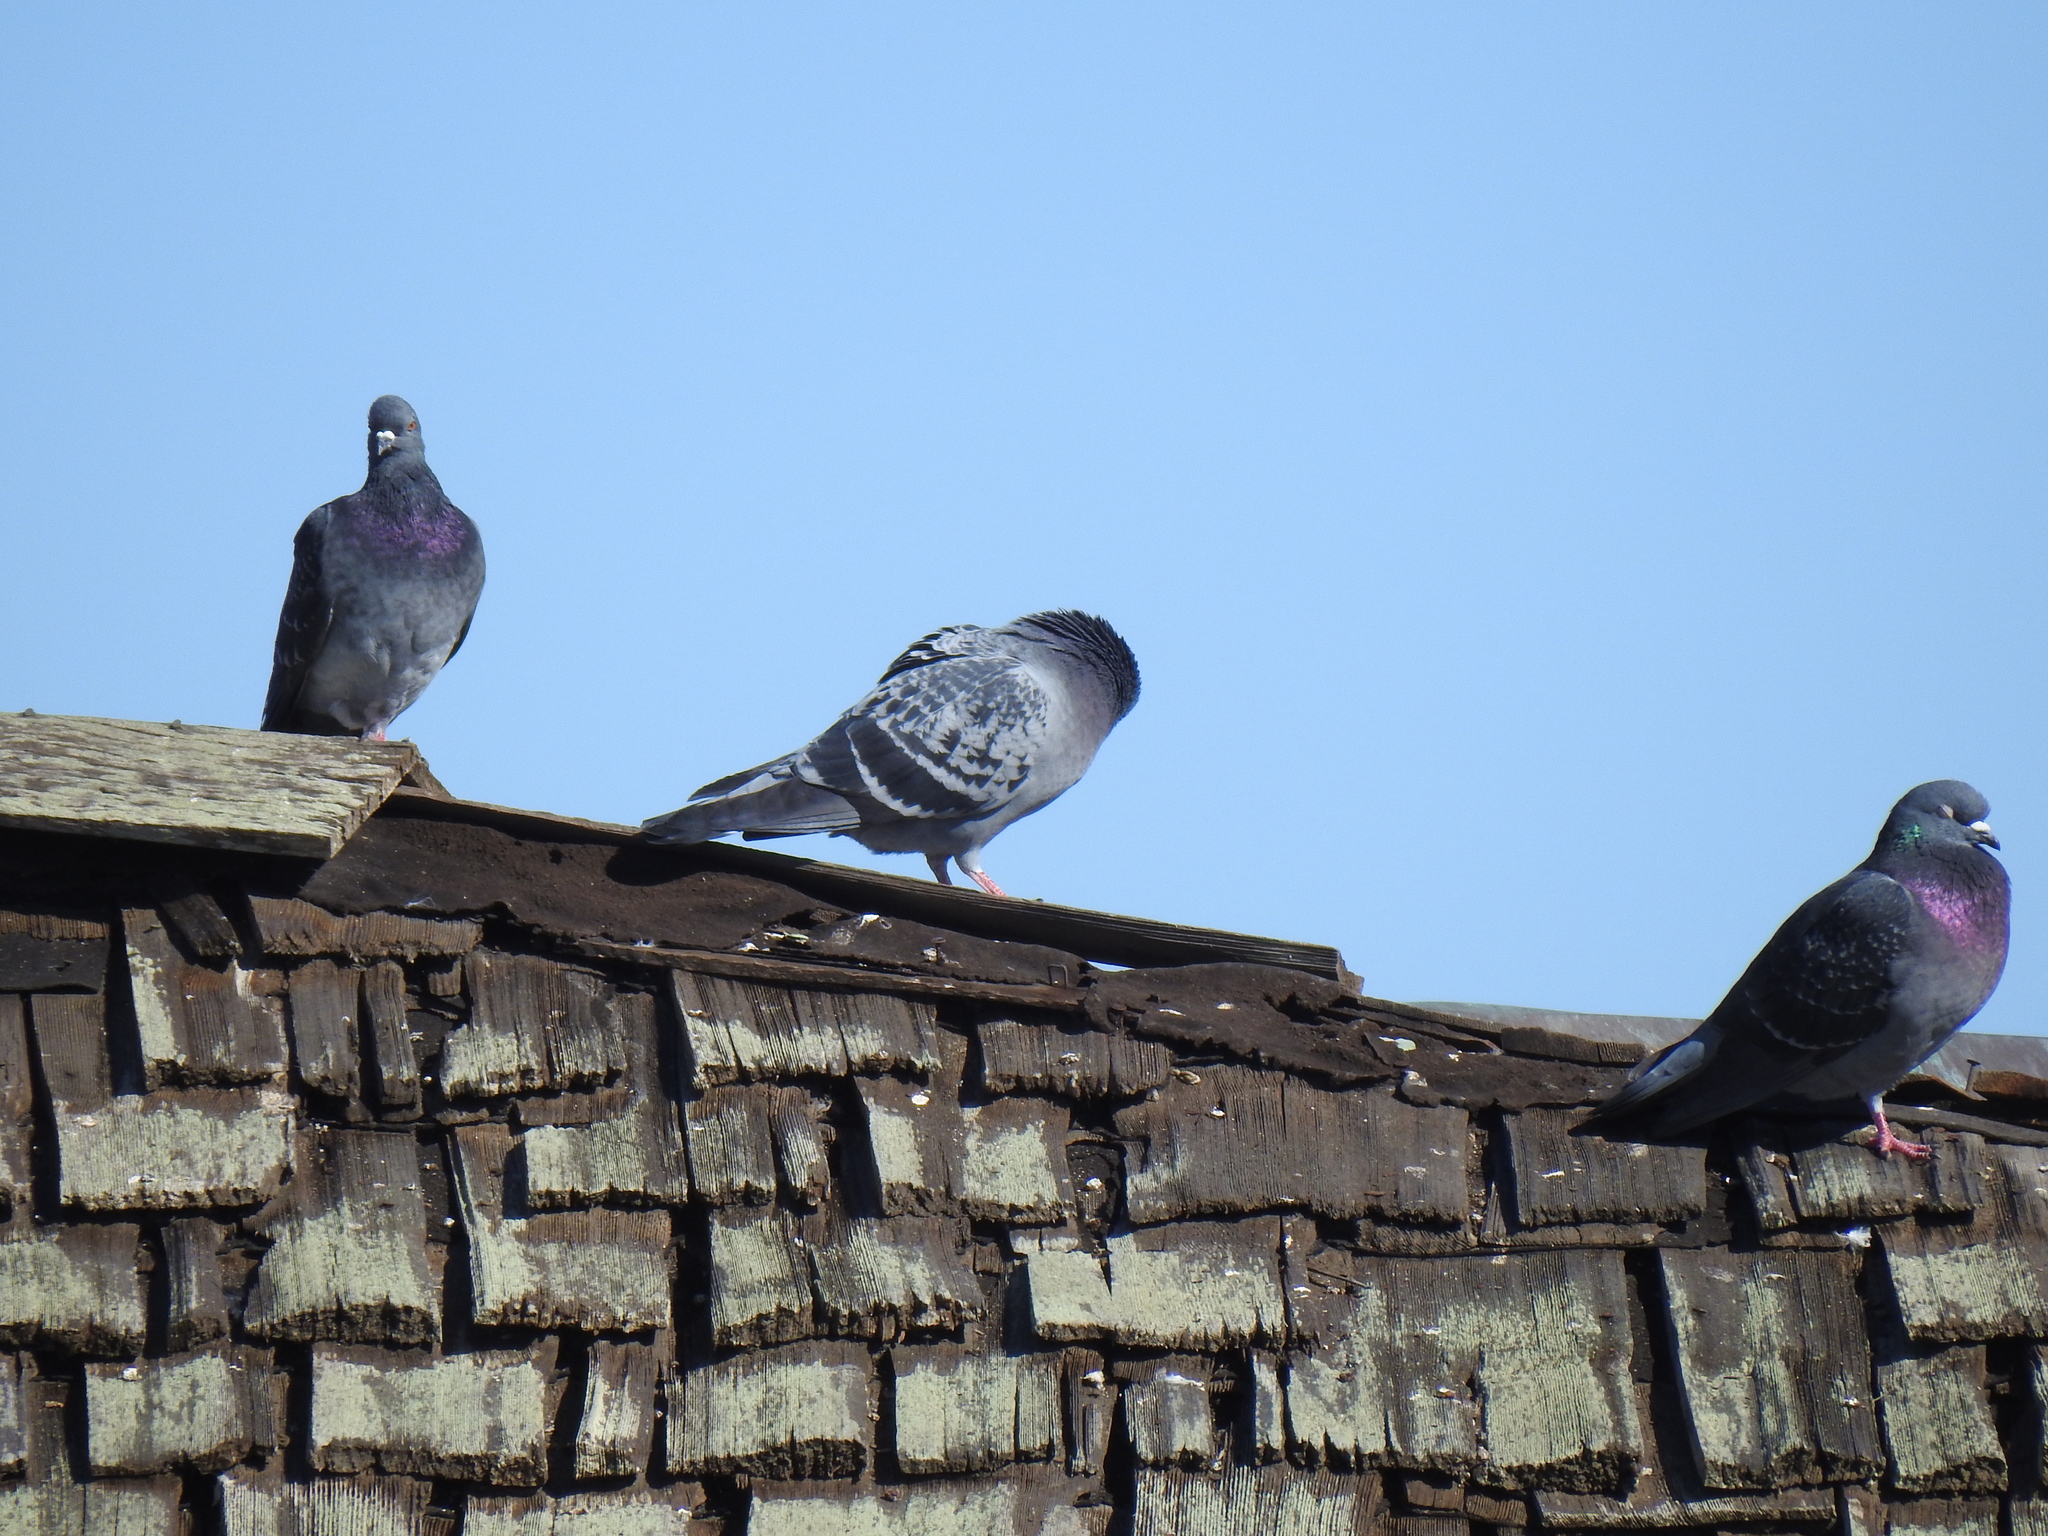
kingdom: Animalia
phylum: Chordata
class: Aves
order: Columbiformes
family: Columbidae
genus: Columba
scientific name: Columba livia
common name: Rock pigeon
